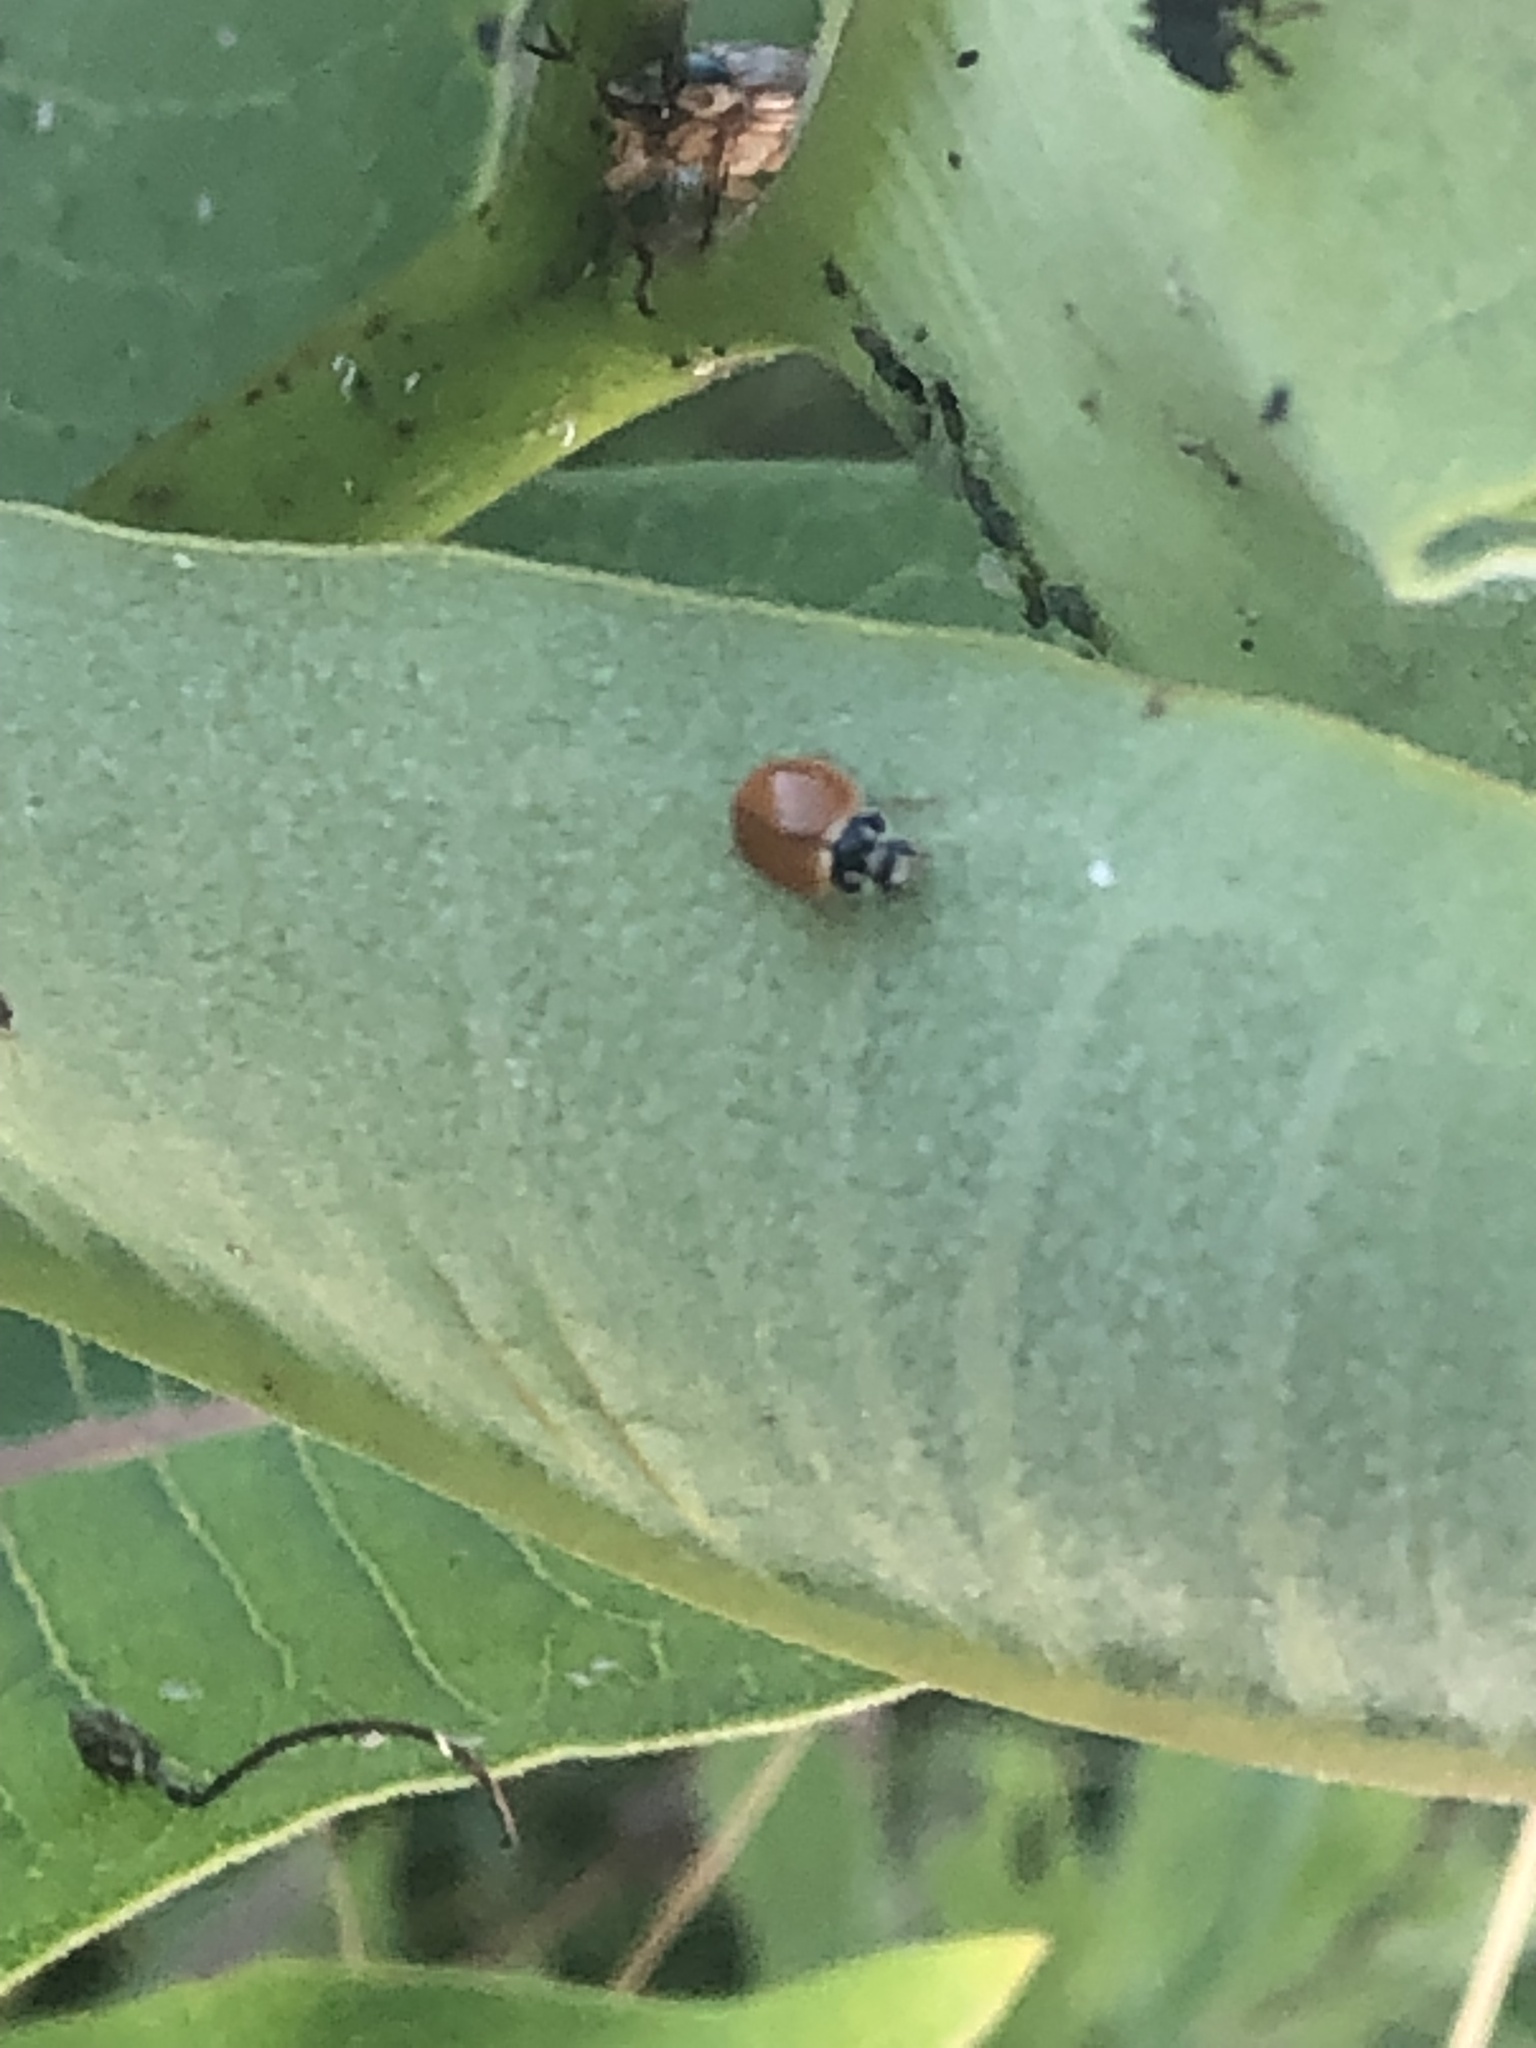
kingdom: Animalia
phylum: Arthropoda
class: Insecta
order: Coleoptera
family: Coccinellidae
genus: Cycloneda
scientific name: Cycloneda munda
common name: Polished lady beetle
